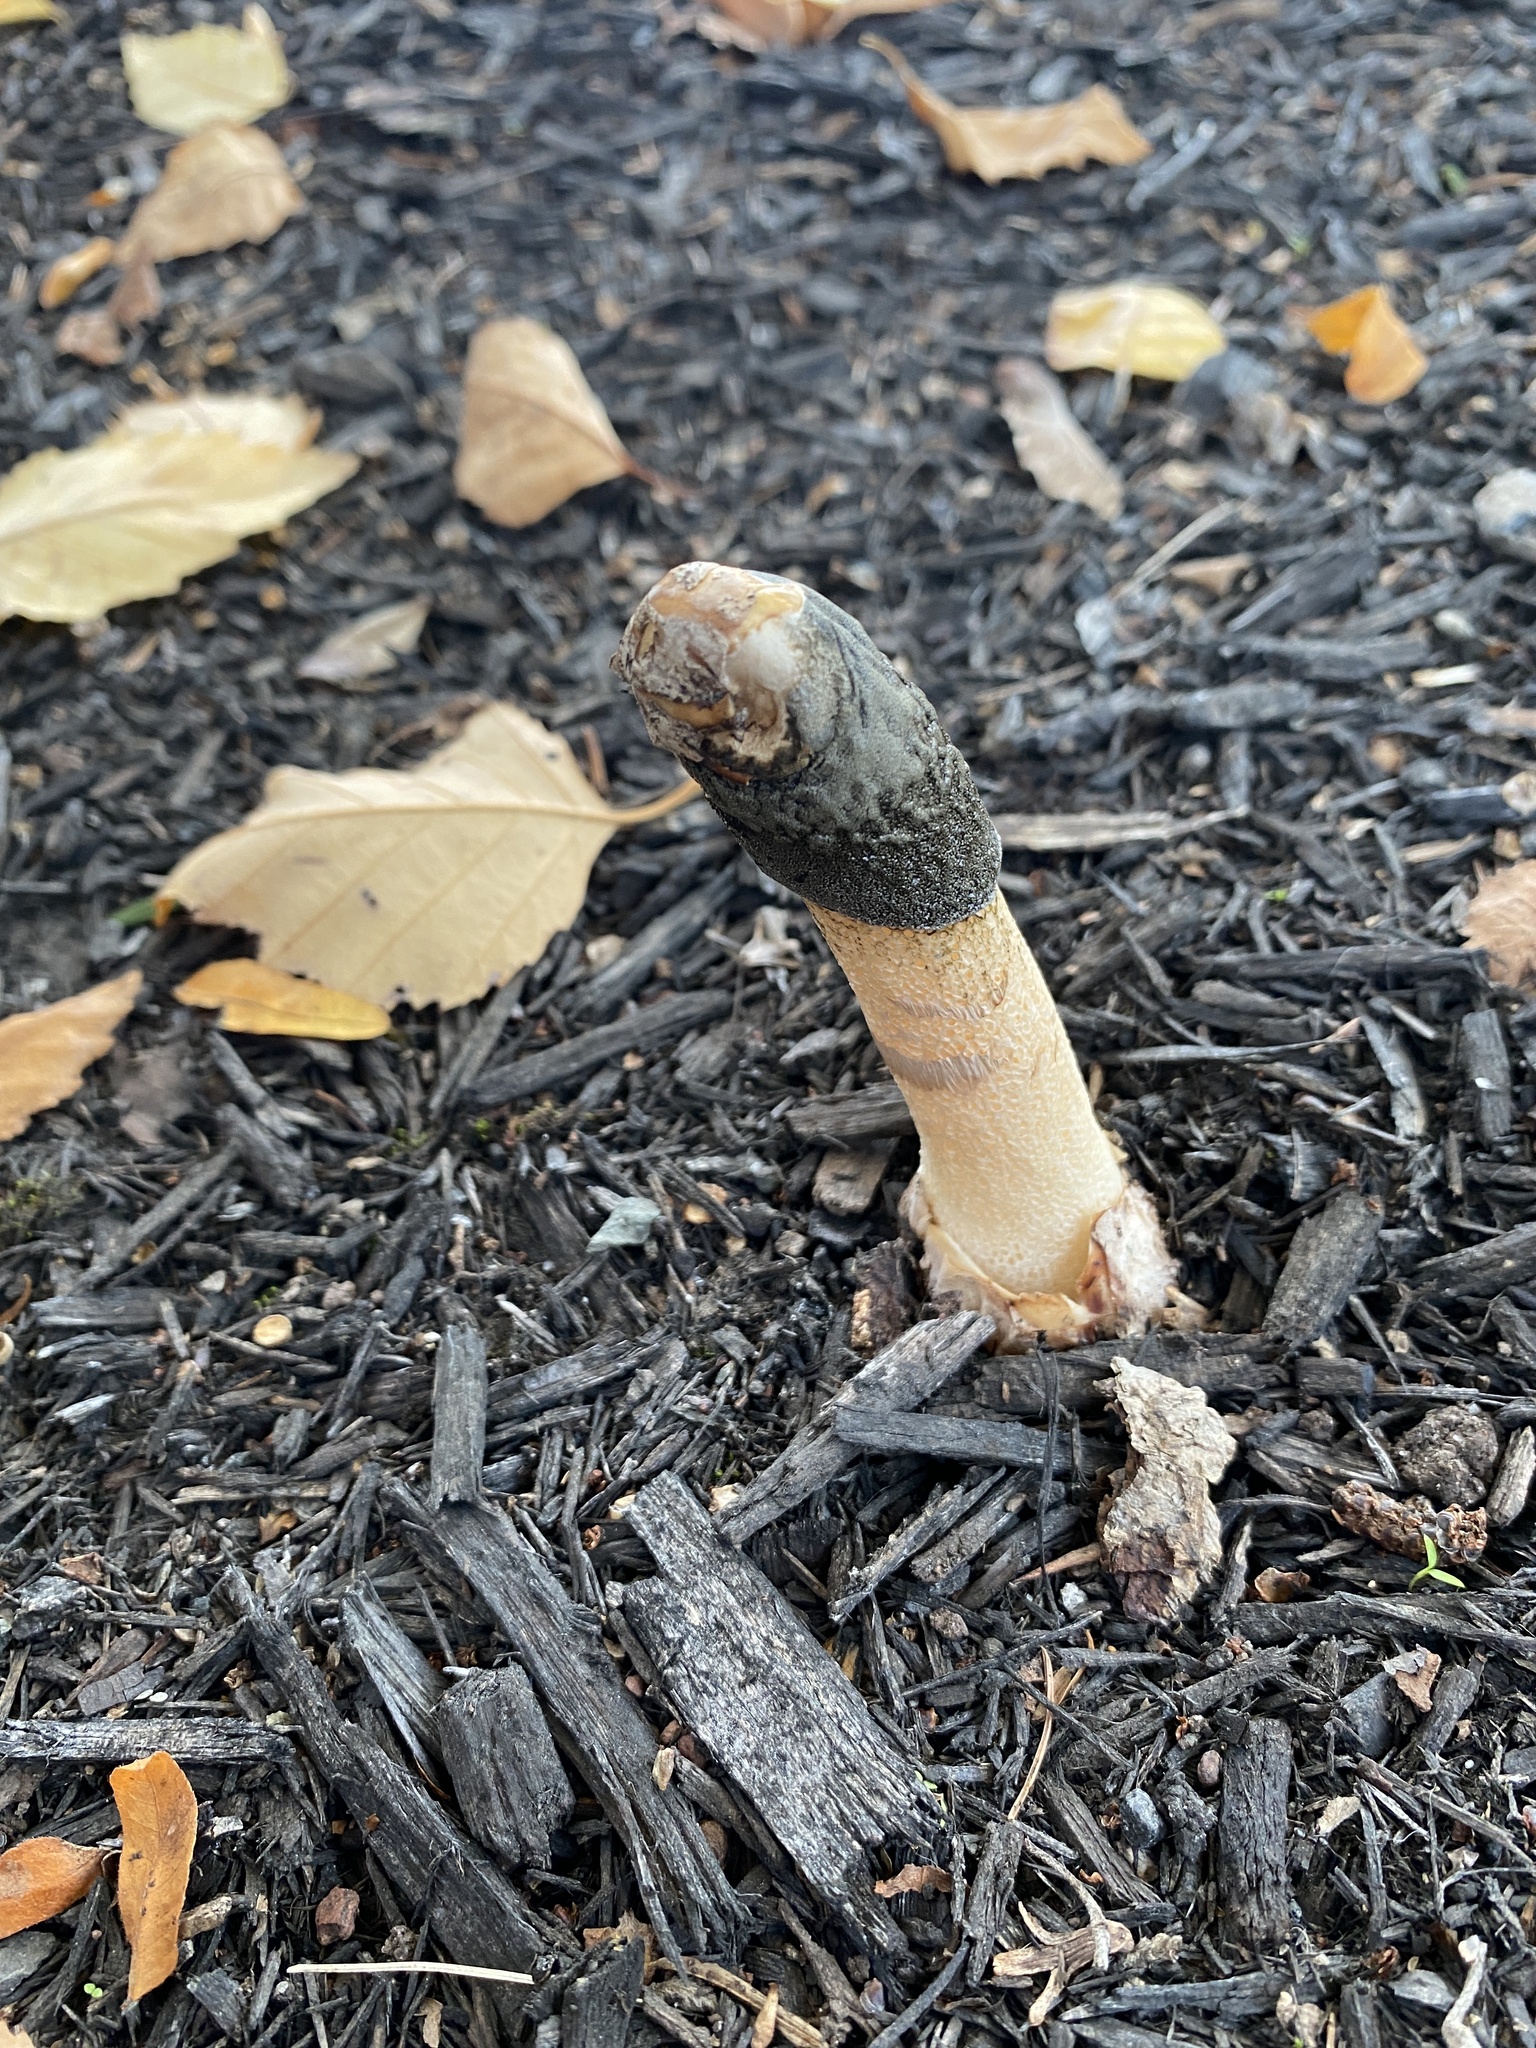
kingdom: Fungi
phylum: Basidiomycota
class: Agaricomycetes
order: Phallales
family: Phallaceae
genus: Phallus
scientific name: Phallus ravenelii
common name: Ravenel's stinkhorn
